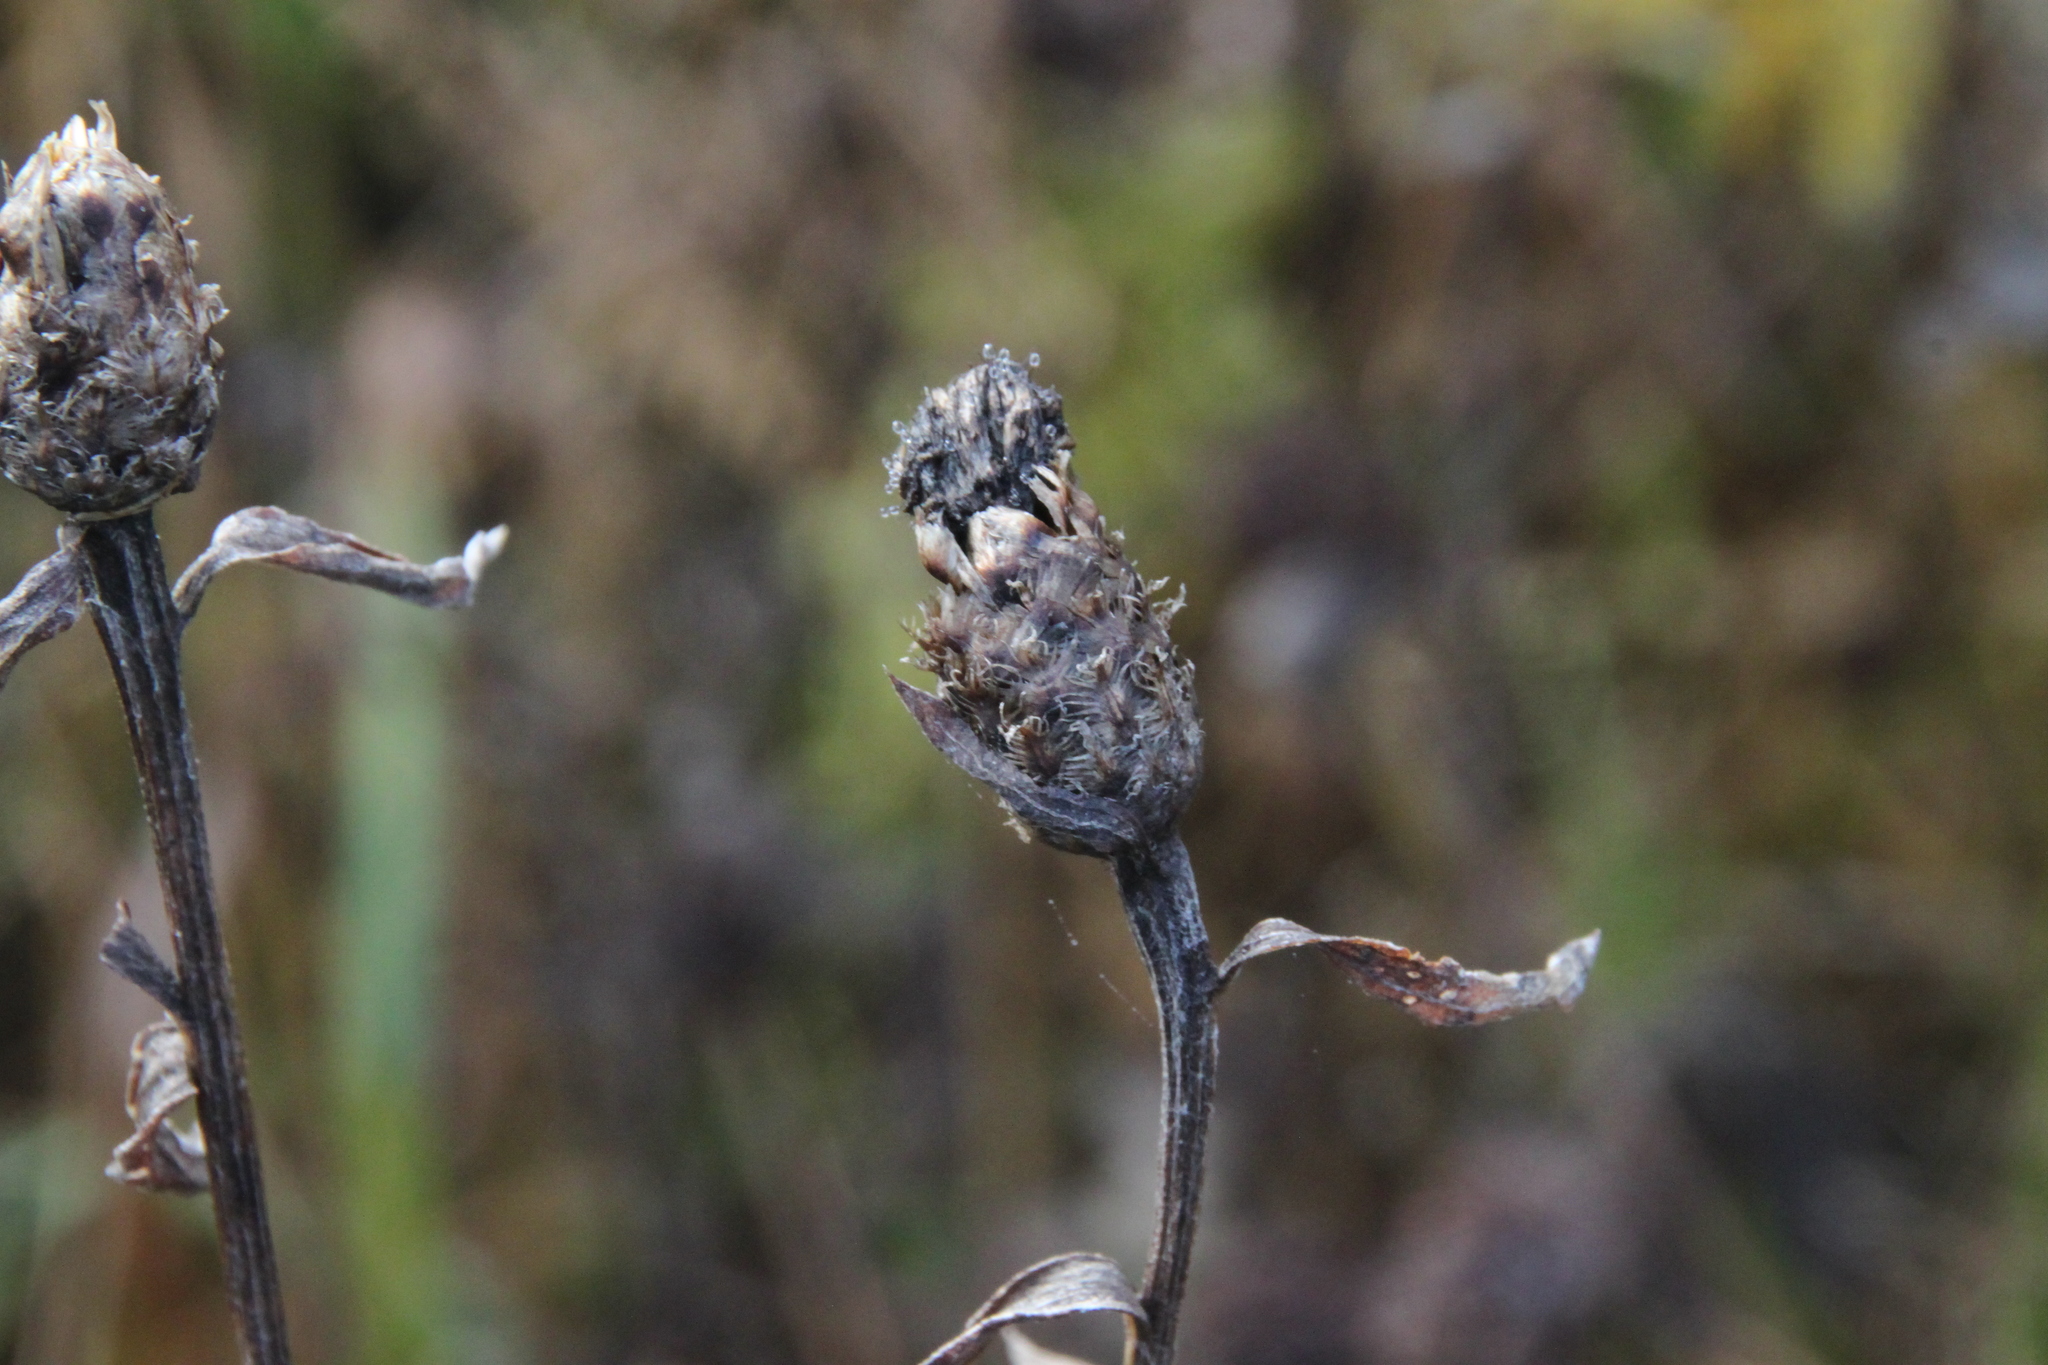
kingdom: Plantae
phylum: Tracheophyta
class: Magnoliopsida
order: Asterales
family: Asteraceae
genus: Centaurea
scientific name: Centaurea jacea
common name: Brown knapweed
